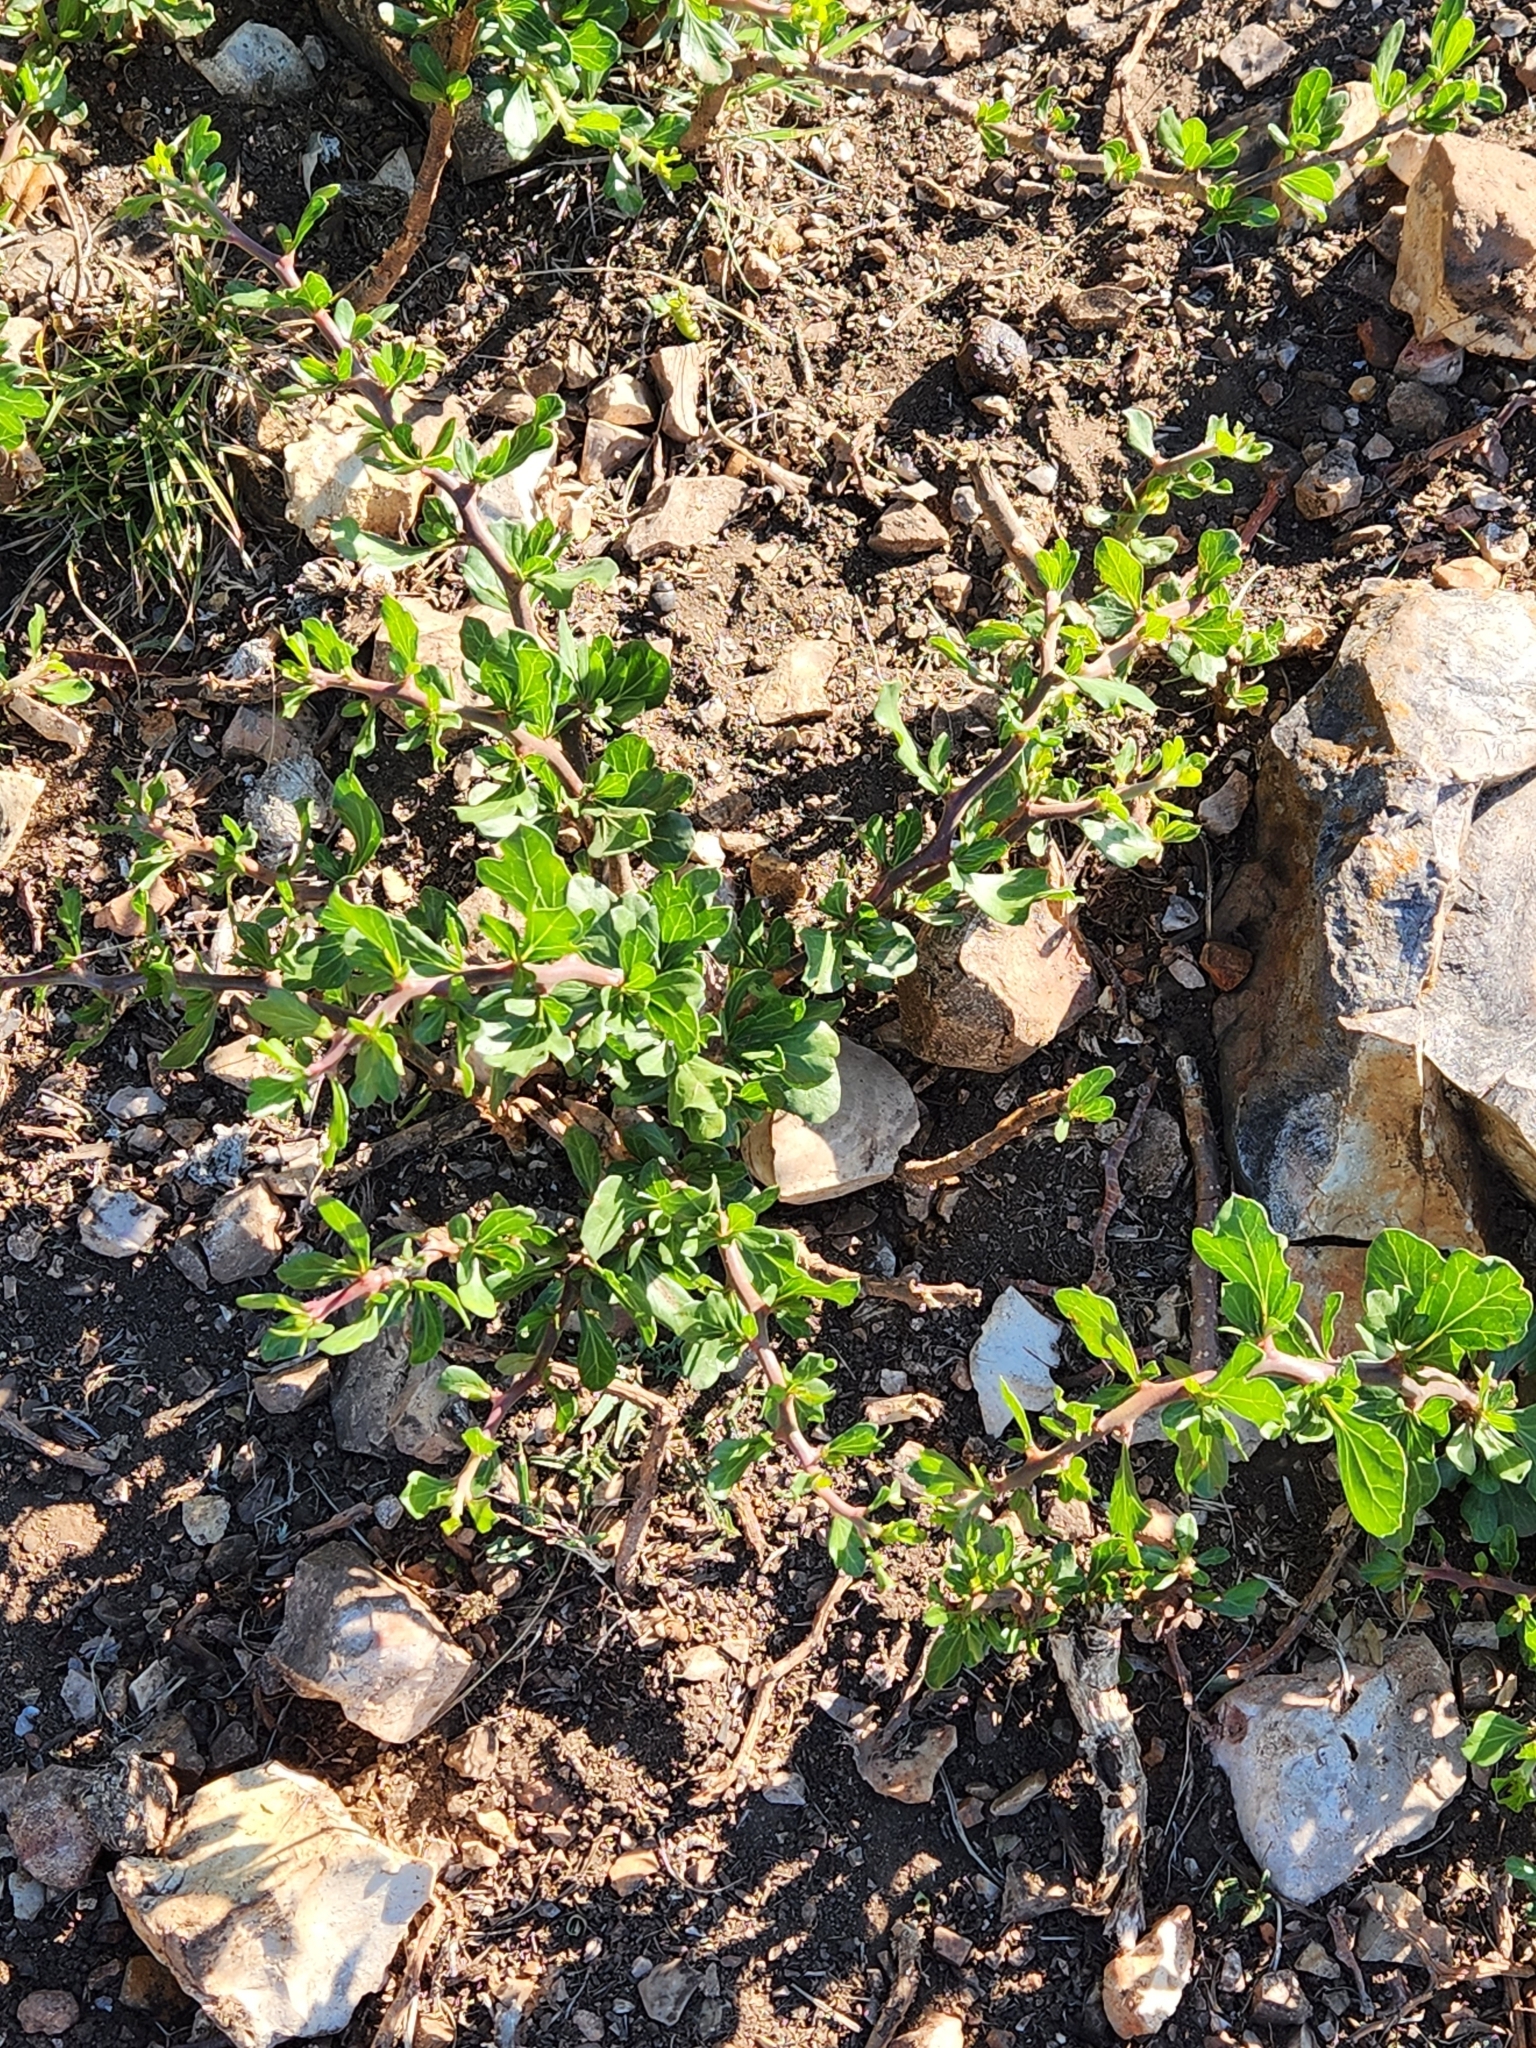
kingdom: Plantae
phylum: Tracheophyta
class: Magnoliopsida
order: Malpighiales
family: Euphorbiaceae
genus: Jatropha
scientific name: Jatropha dioica
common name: Leatherstem
